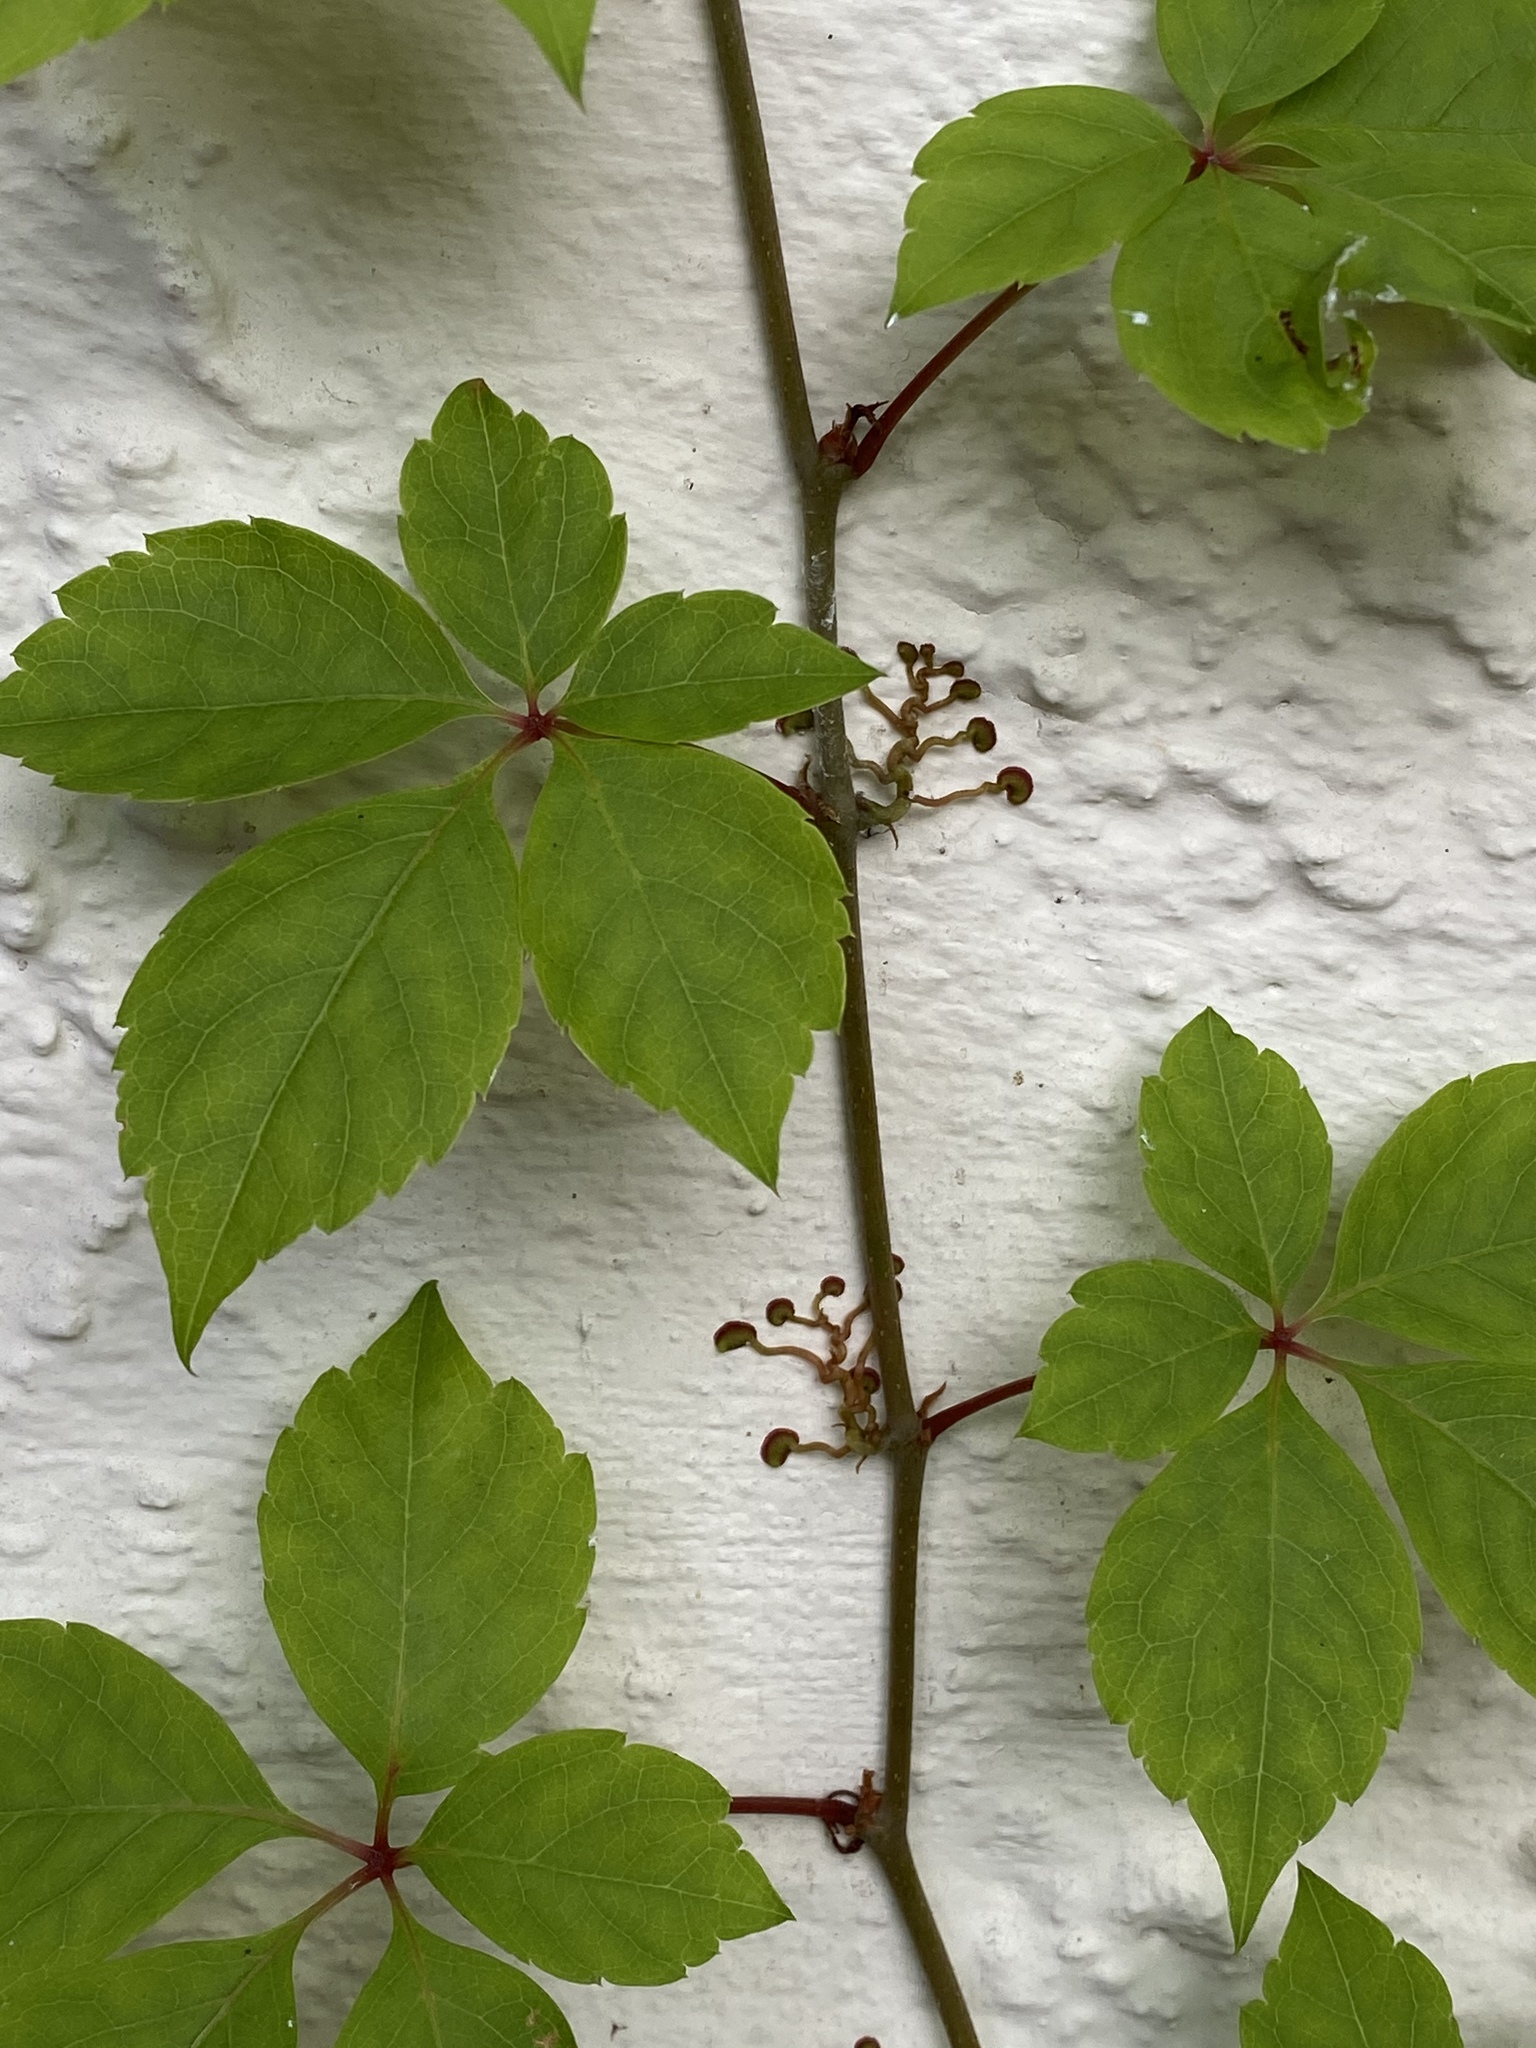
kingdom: Plantae
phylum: Tracheophyta
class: Magnoliopsida
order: Vitales
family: Vitaceae
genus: Parthenocissus
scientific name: Parthenocissus quinquefolia
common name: Virginia-creeper
